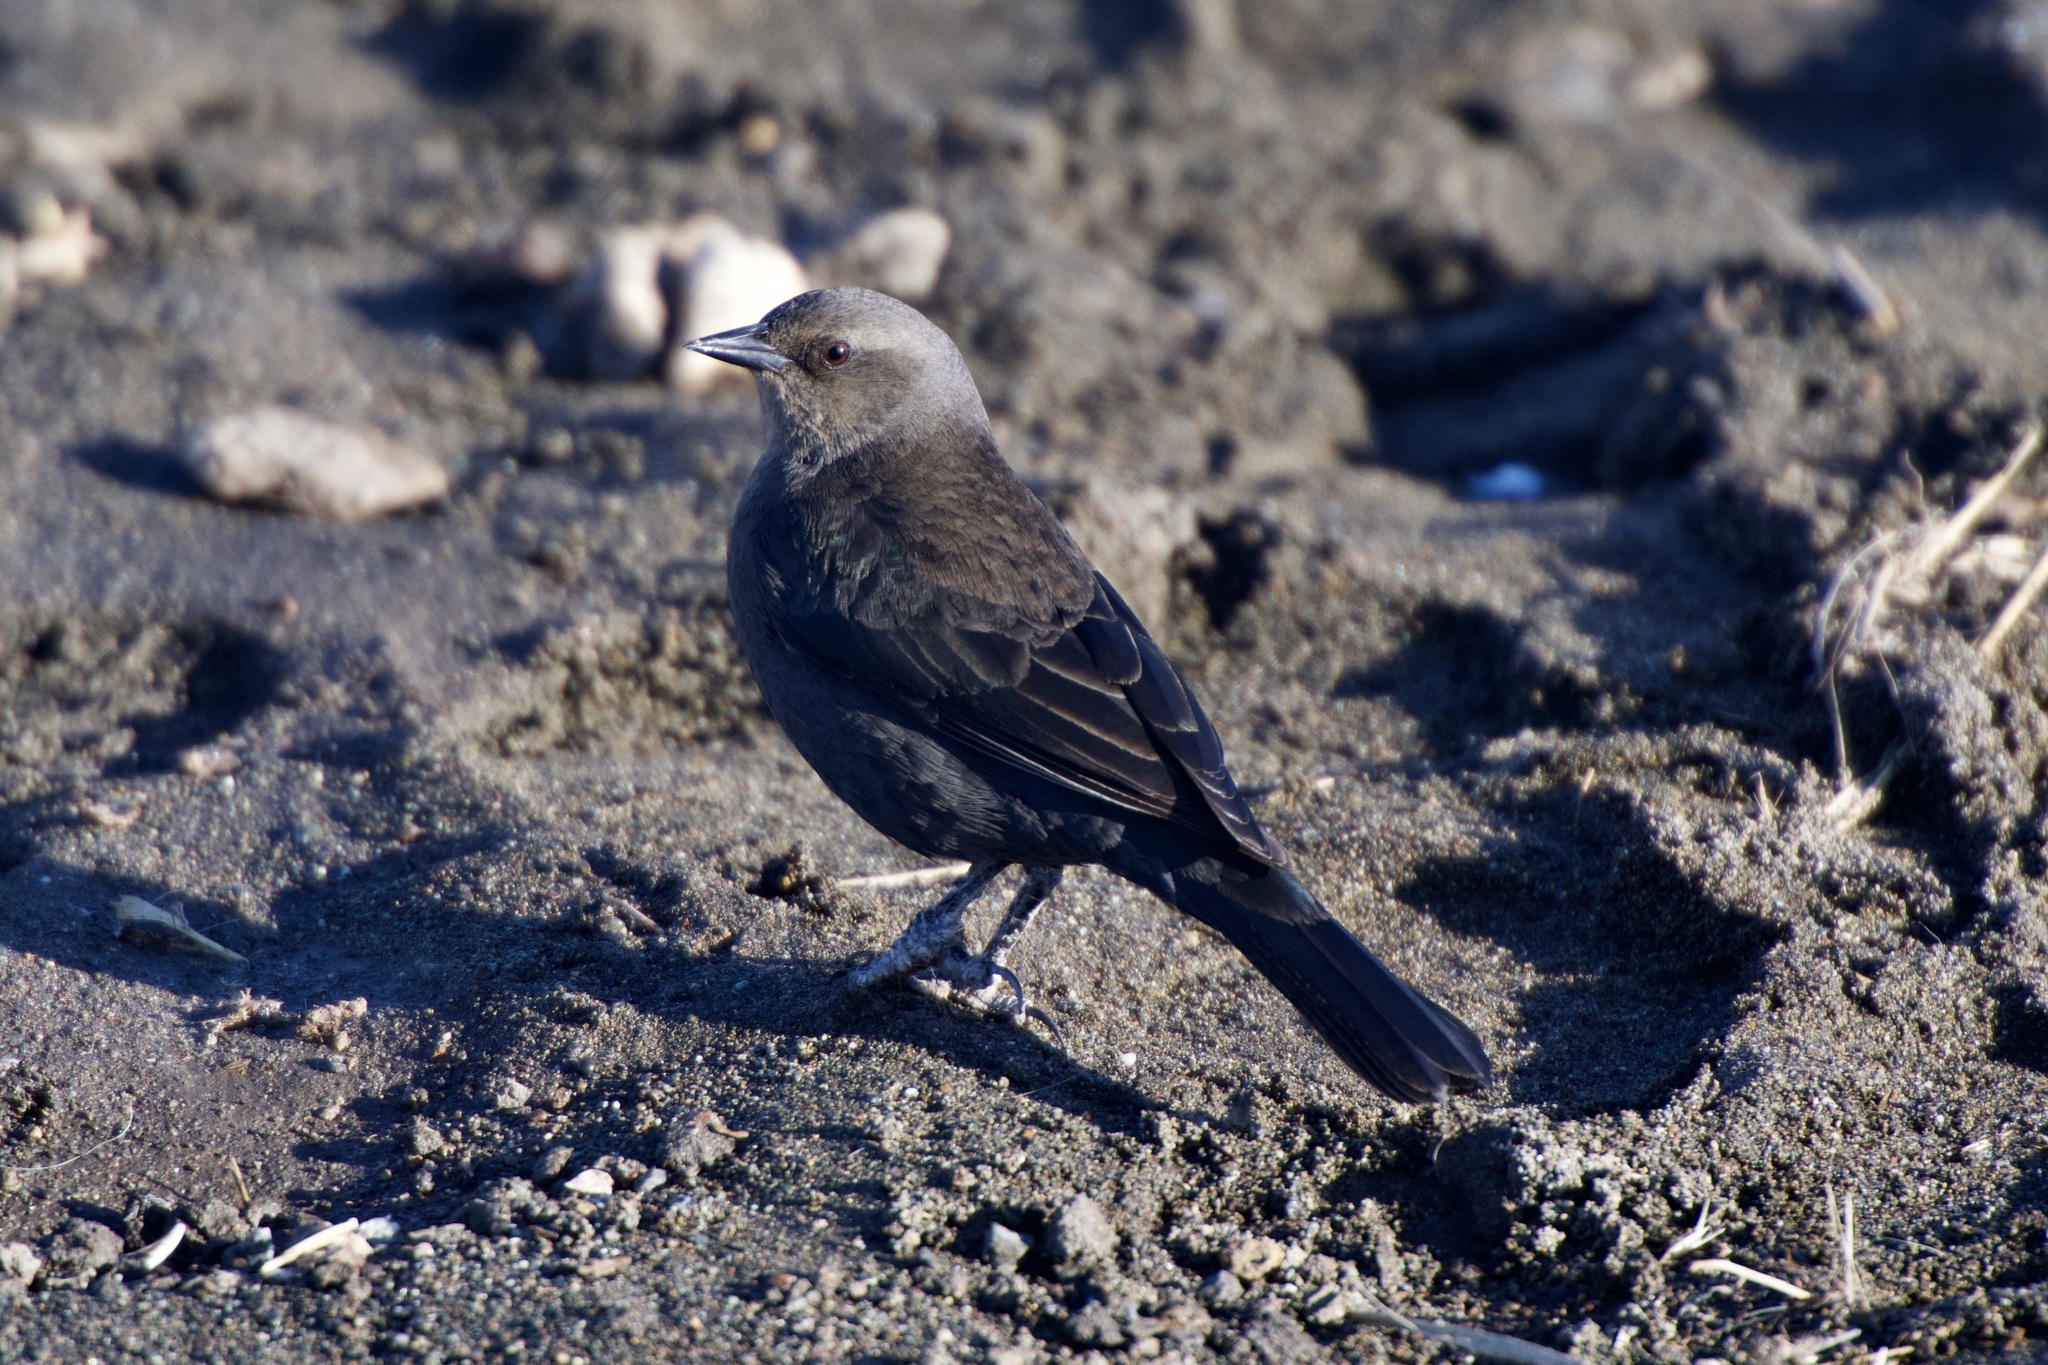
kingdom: Animalia
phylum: Chordata
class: Aves
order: Passeriformes
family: Icteridae
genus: Euphagus
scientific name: Euphagus cyanocephalus
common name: Brewer's blackbird
